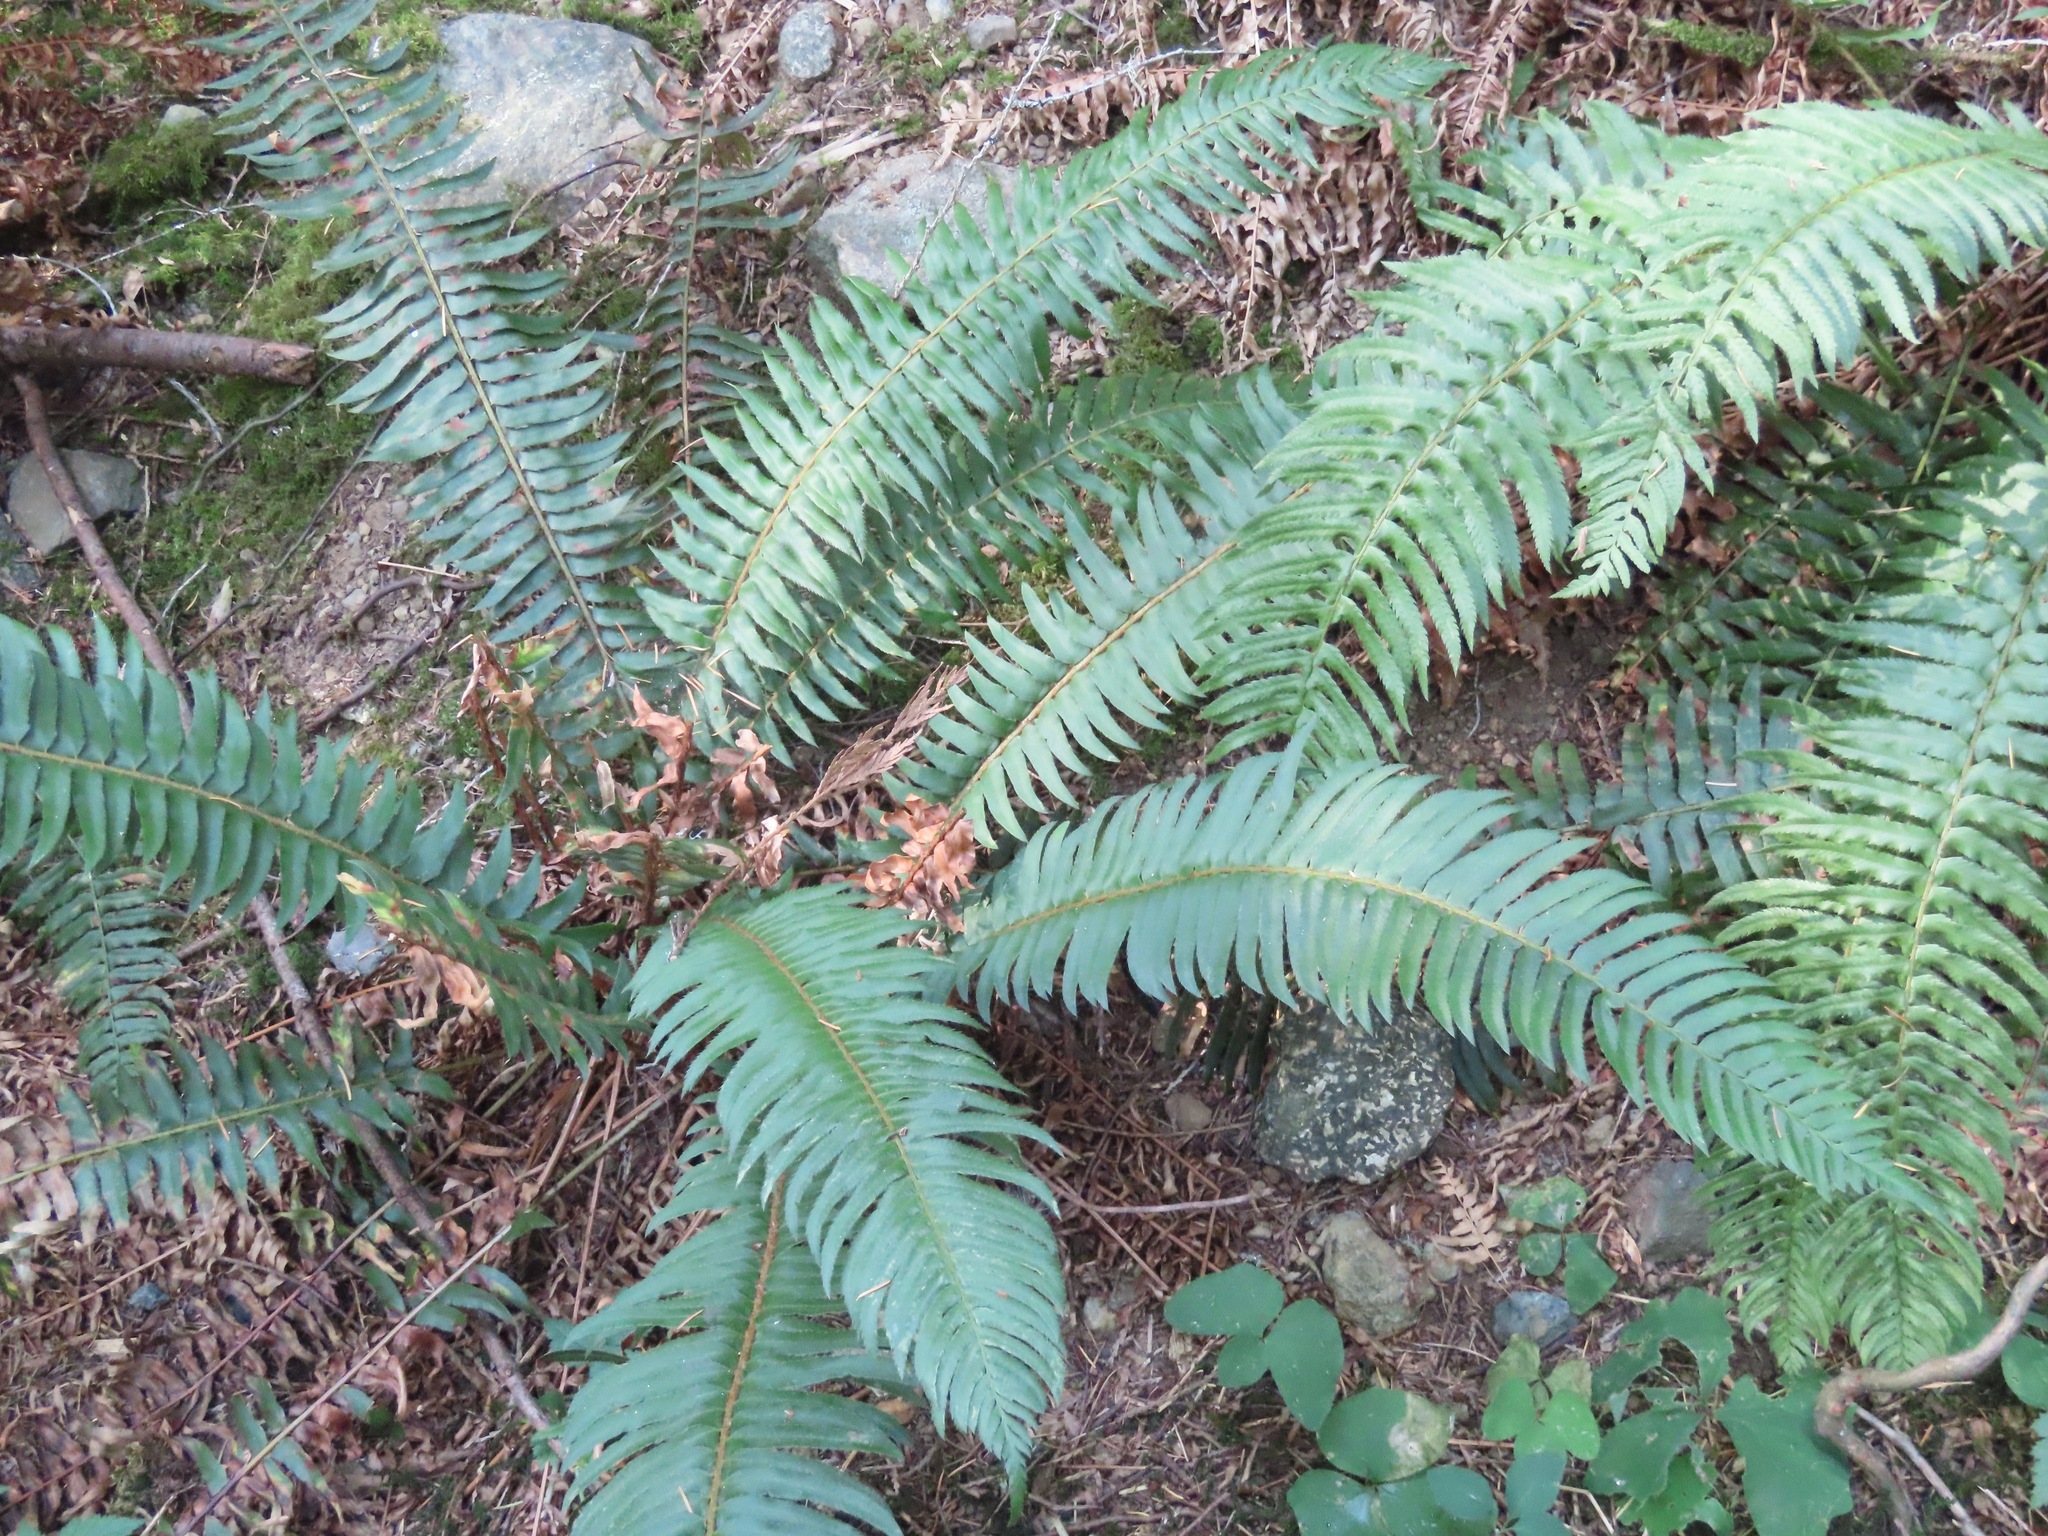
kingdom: Plantae
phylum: Tracheophyta
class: Polypodiopsida
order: Polypodiales
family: Dryopteridaceae
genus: Polystichum
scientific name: Polystichum munitum
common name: Western sword-fern
